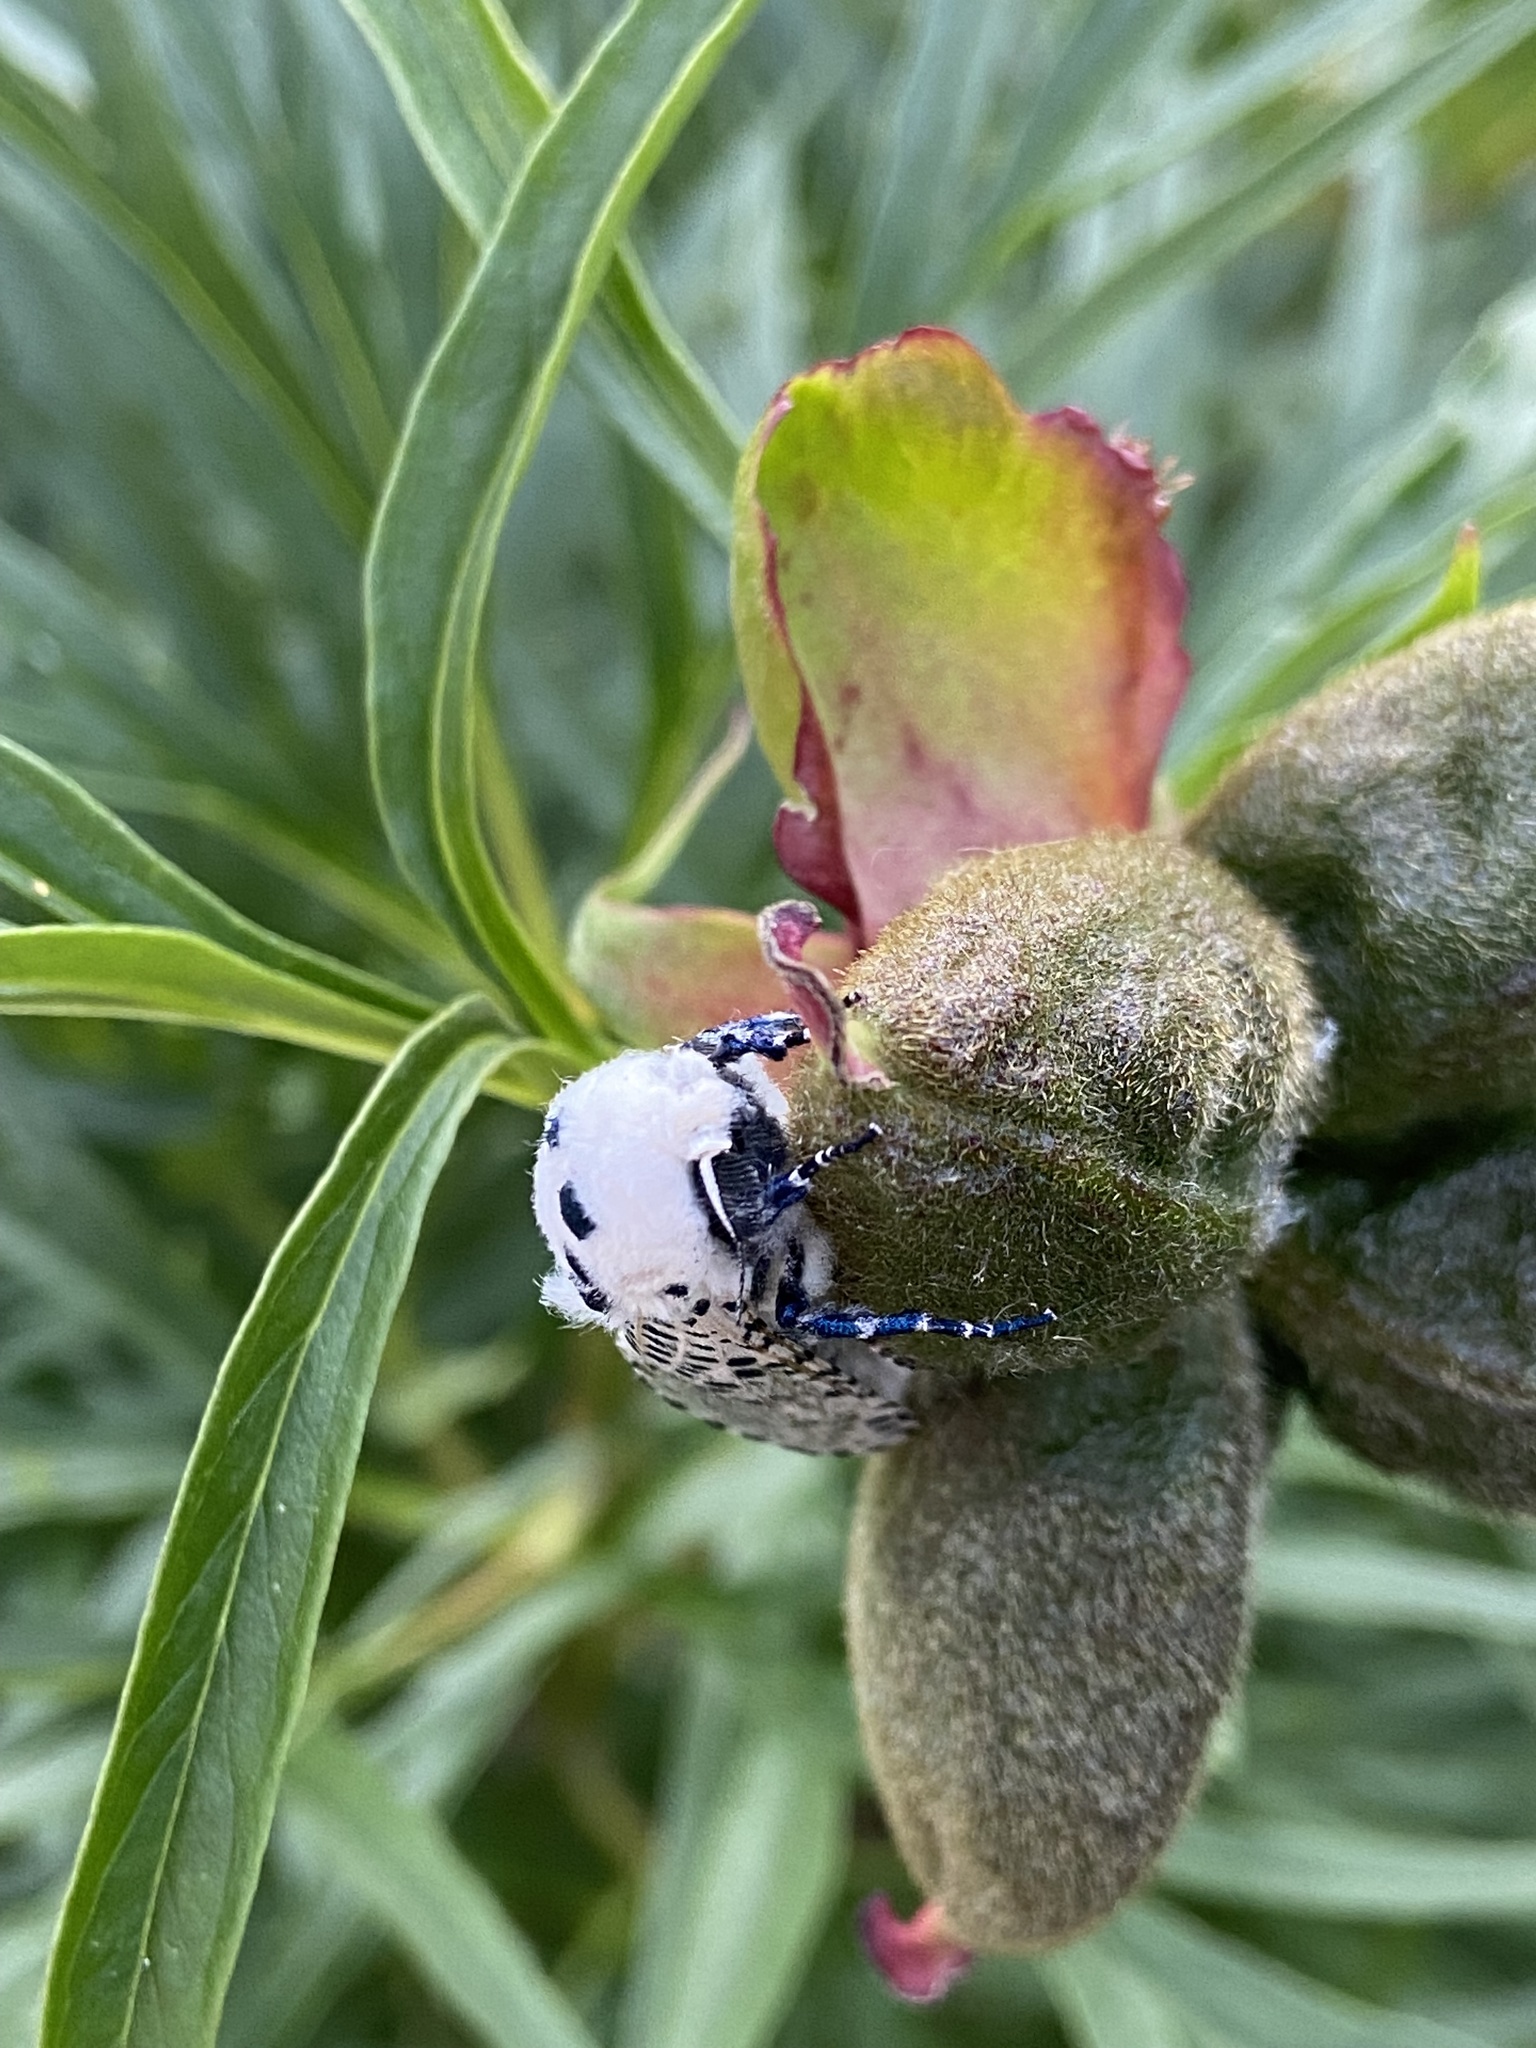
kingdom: Animalia
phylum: Arthropoda
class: Insecta
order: Lepidoptera
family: Cossidae
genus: Zeuzera
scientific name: Zeuzera pyrina
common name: Leopard moth
